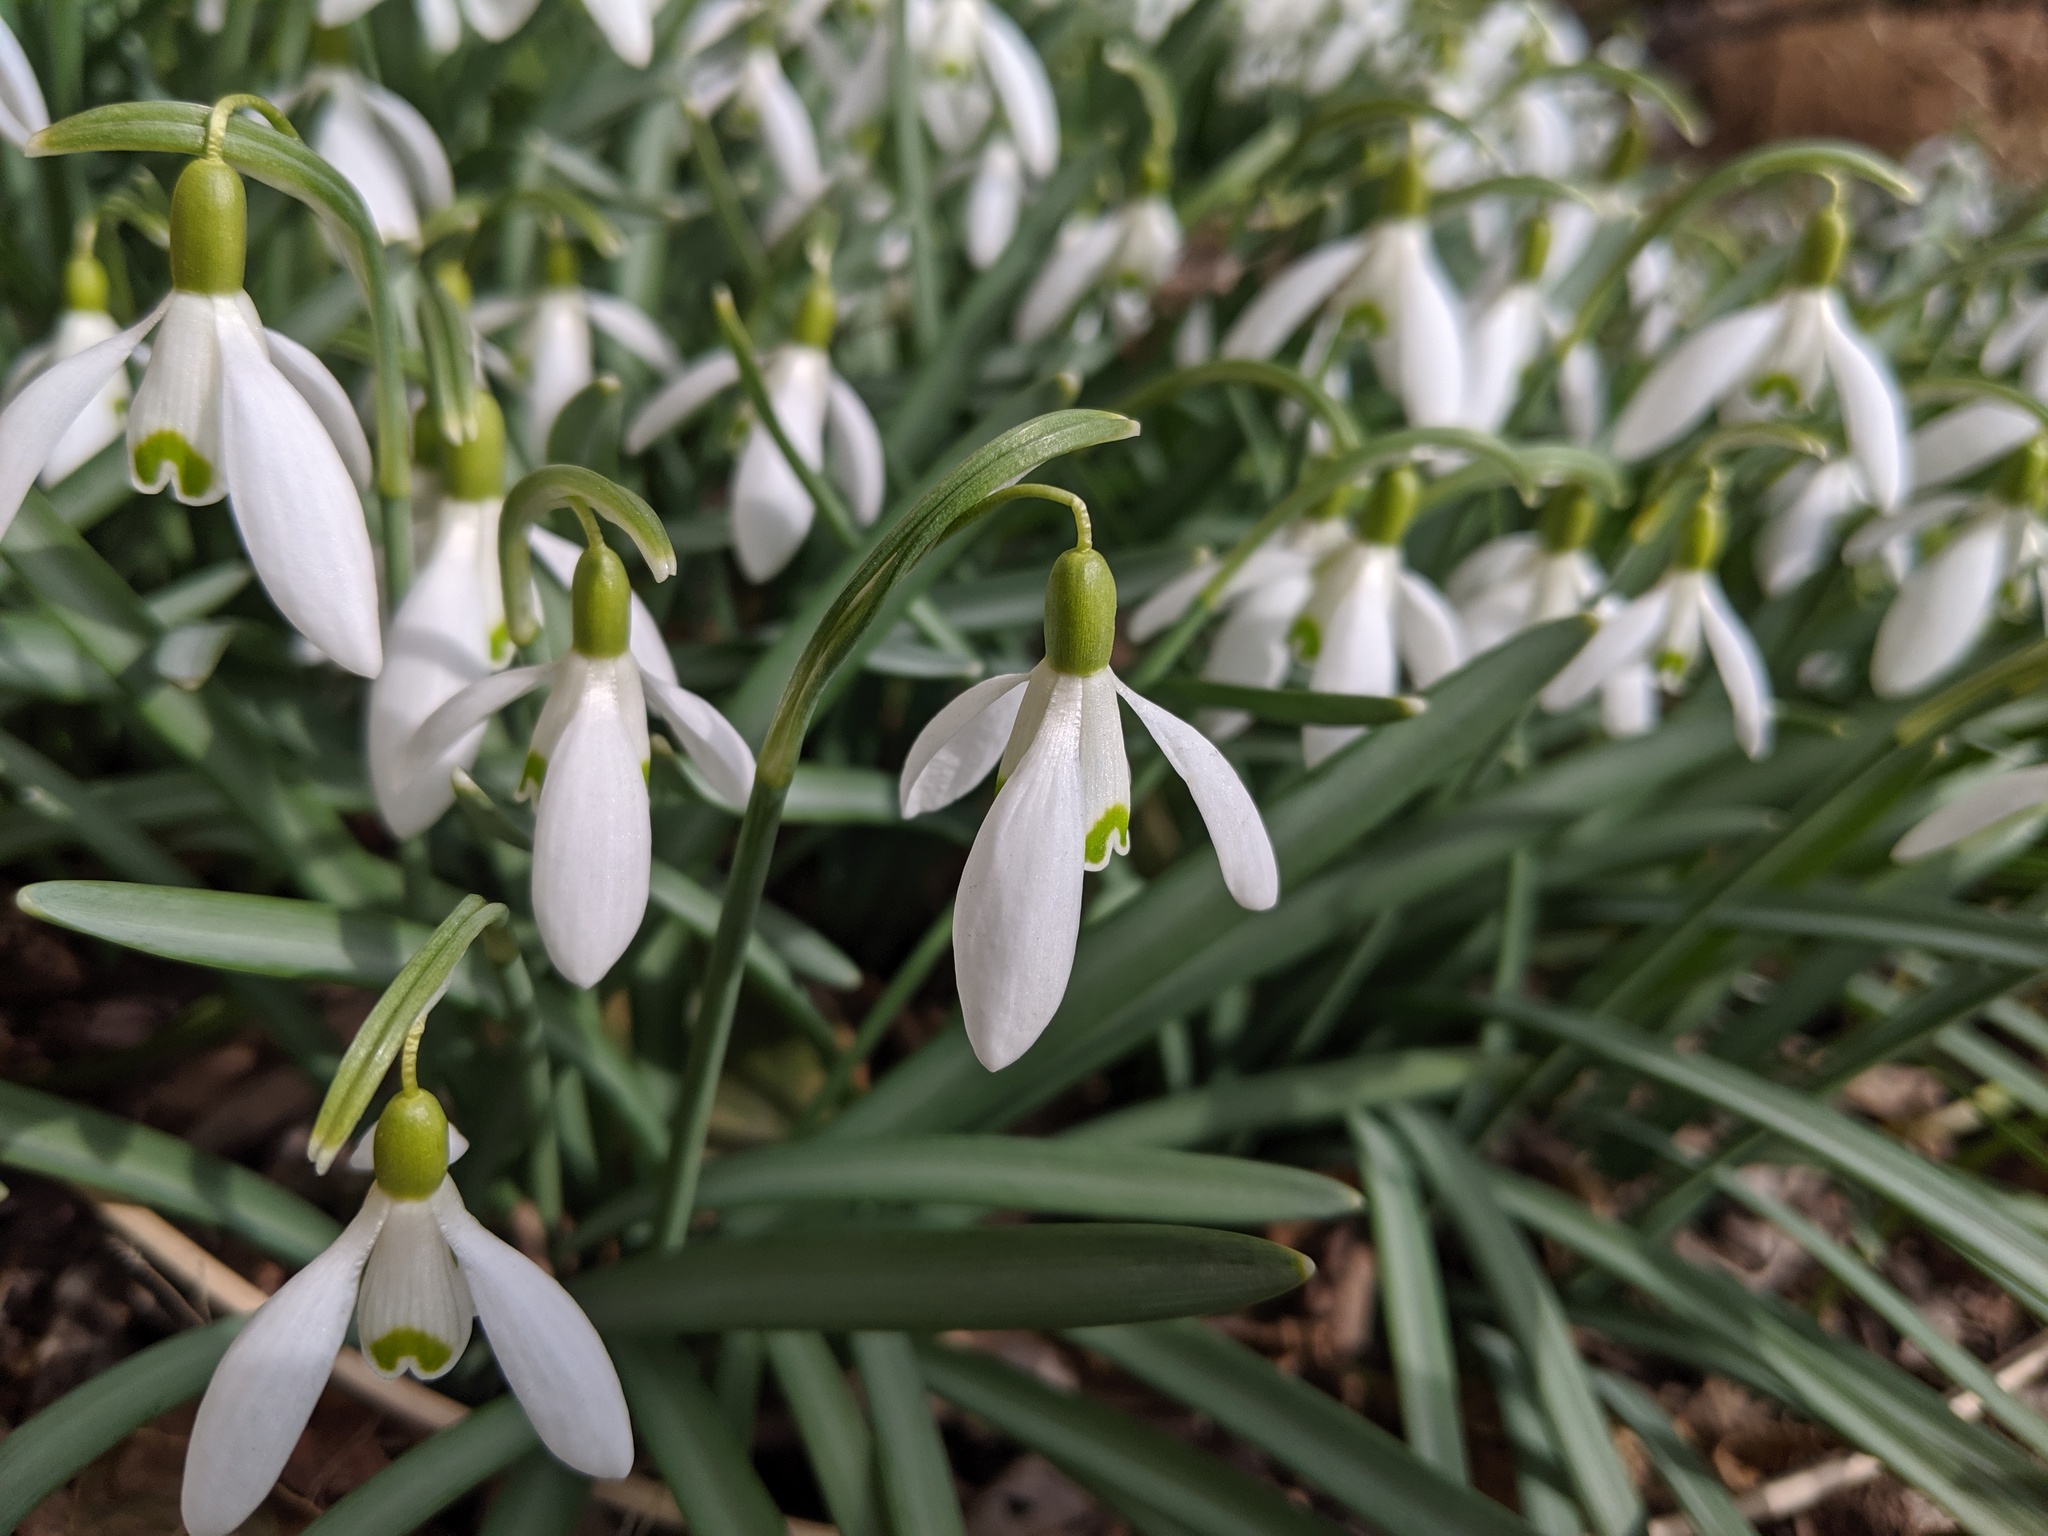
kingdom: Plantae
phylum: Tracheophyta
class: Liliopsida
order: Asparagales
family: Amaryllidaceae
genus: Galanthus
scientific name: Galanthus nivalis
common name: Snowdrop
